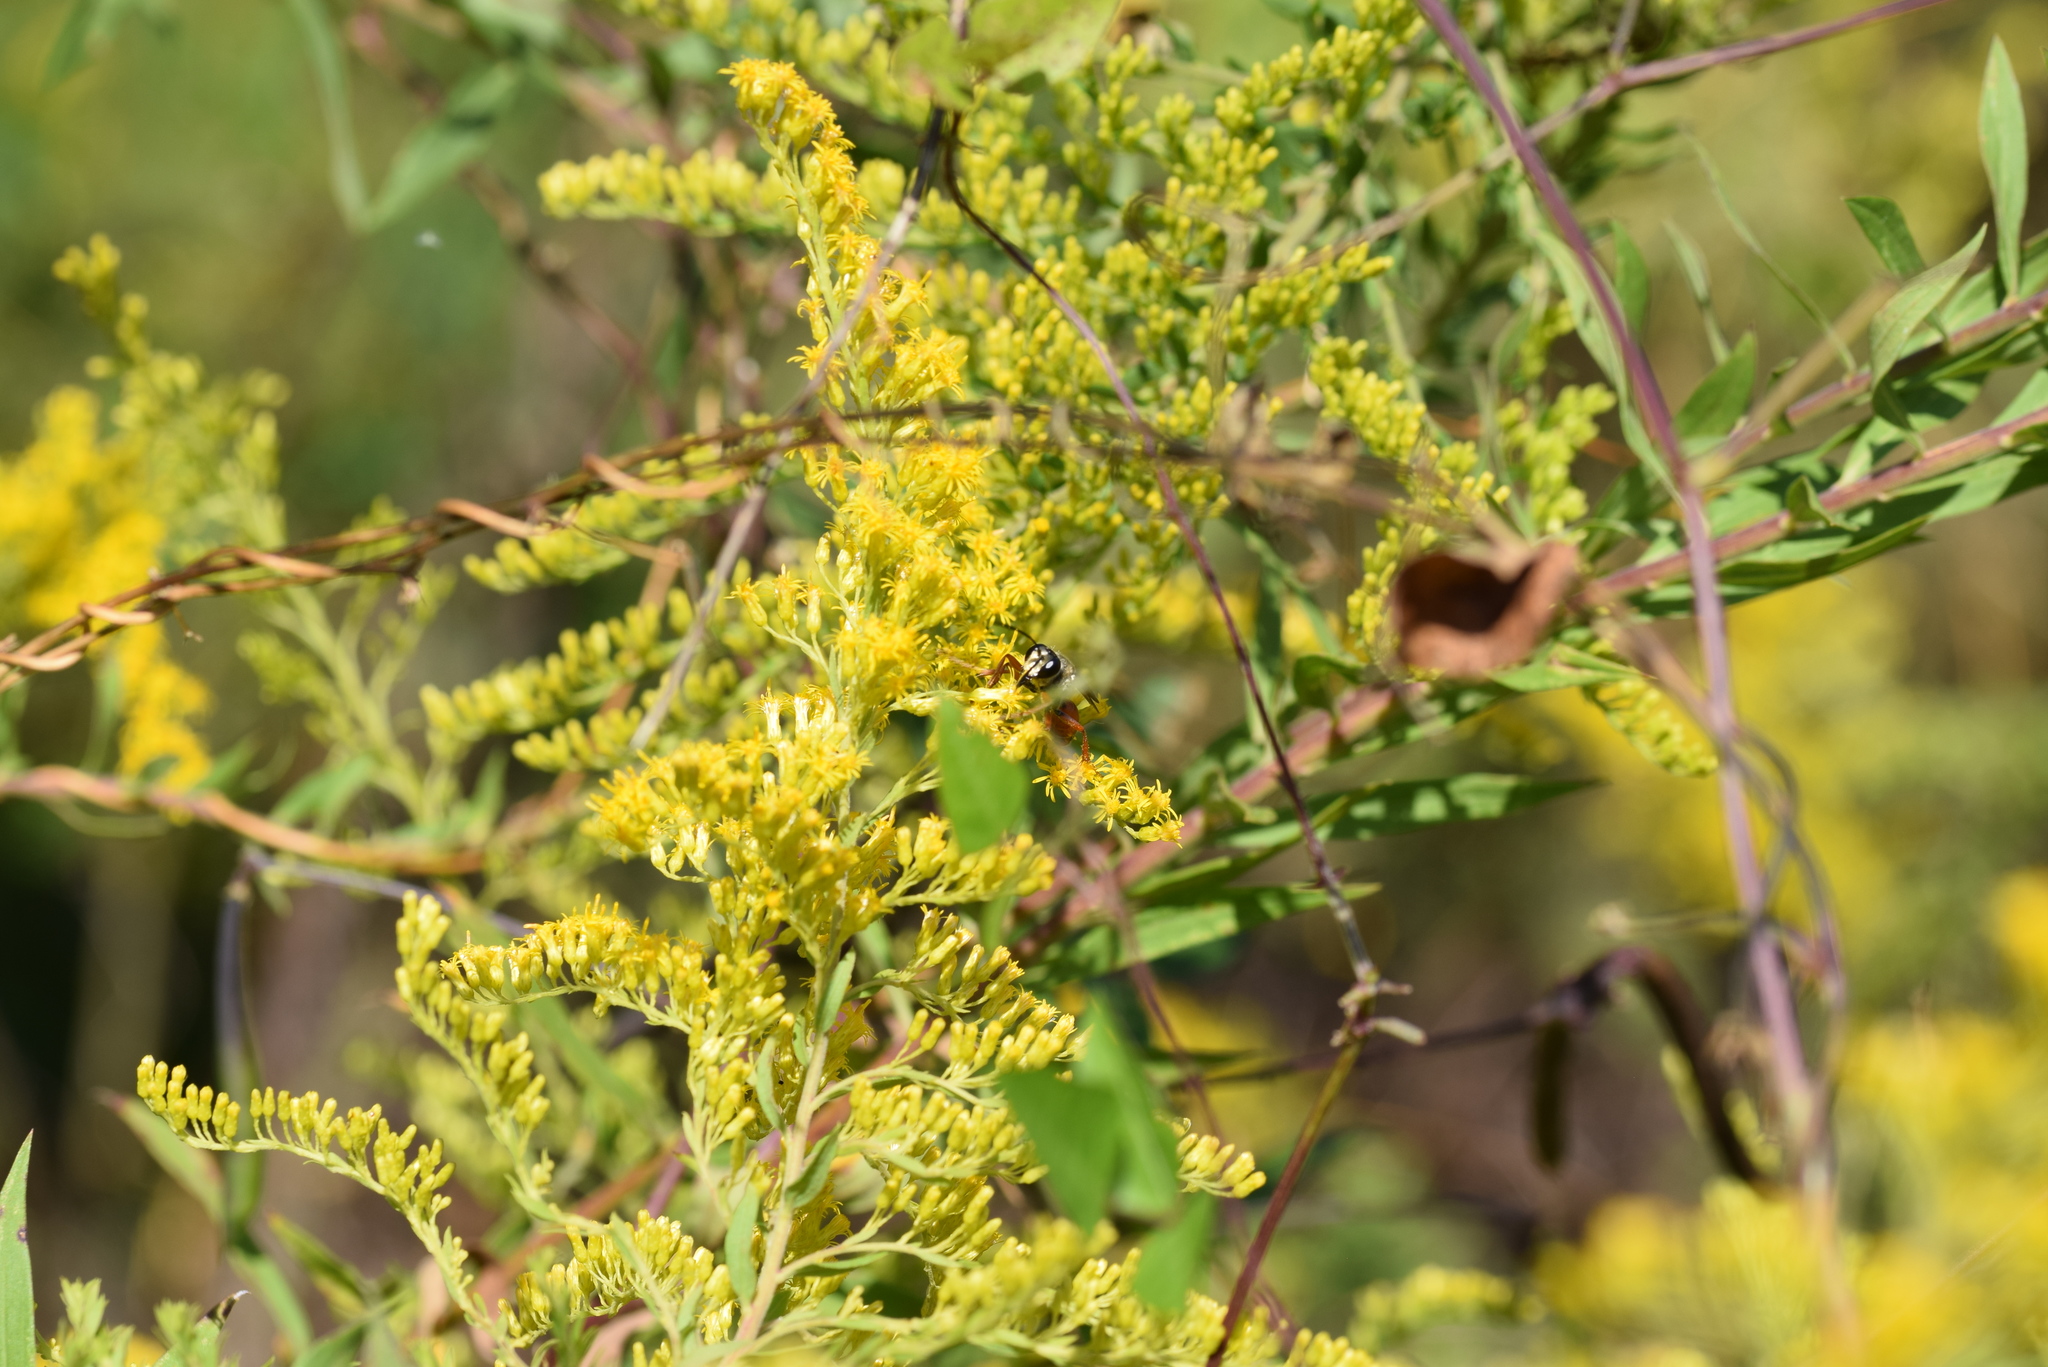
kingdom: Animalia
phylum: Arthropoda
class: Insecta
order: Hymenoptera
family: Sphecidae
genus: Sphex
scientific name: Sphex ichneumoneus
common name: Great golden digger wasp
